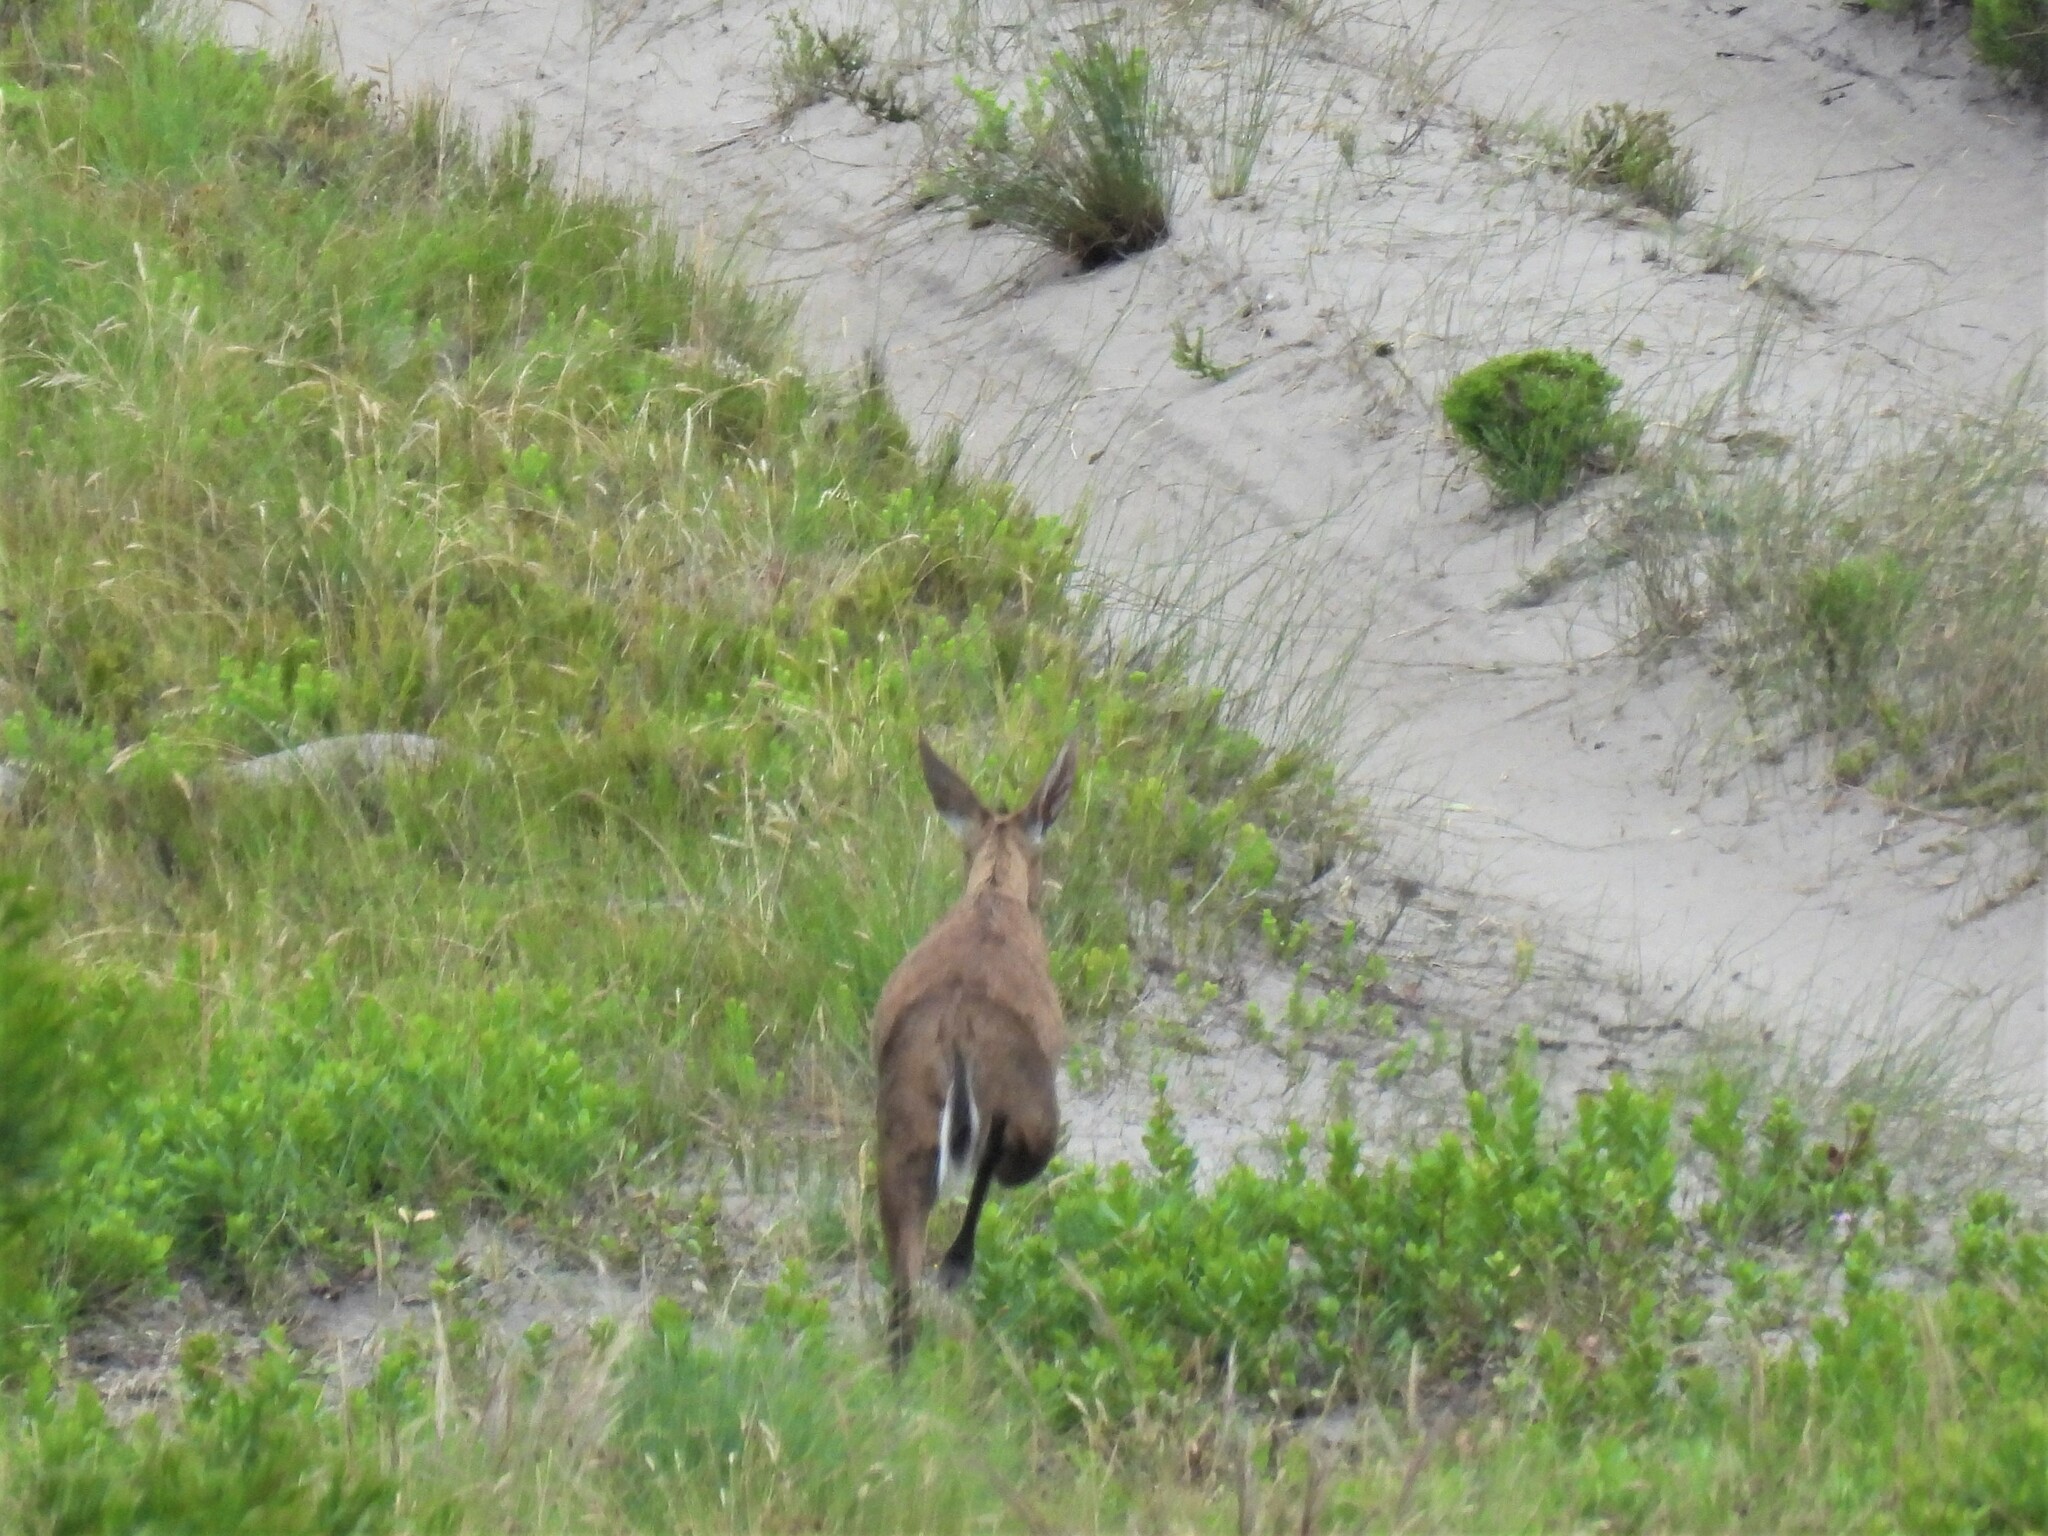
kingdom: Animalia
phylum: Chordata
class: Mammalia
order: Artiodactyla
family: Bovidae
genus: Sylvicapra
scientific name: Sylvicapra grimmia
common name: Bush duiker
